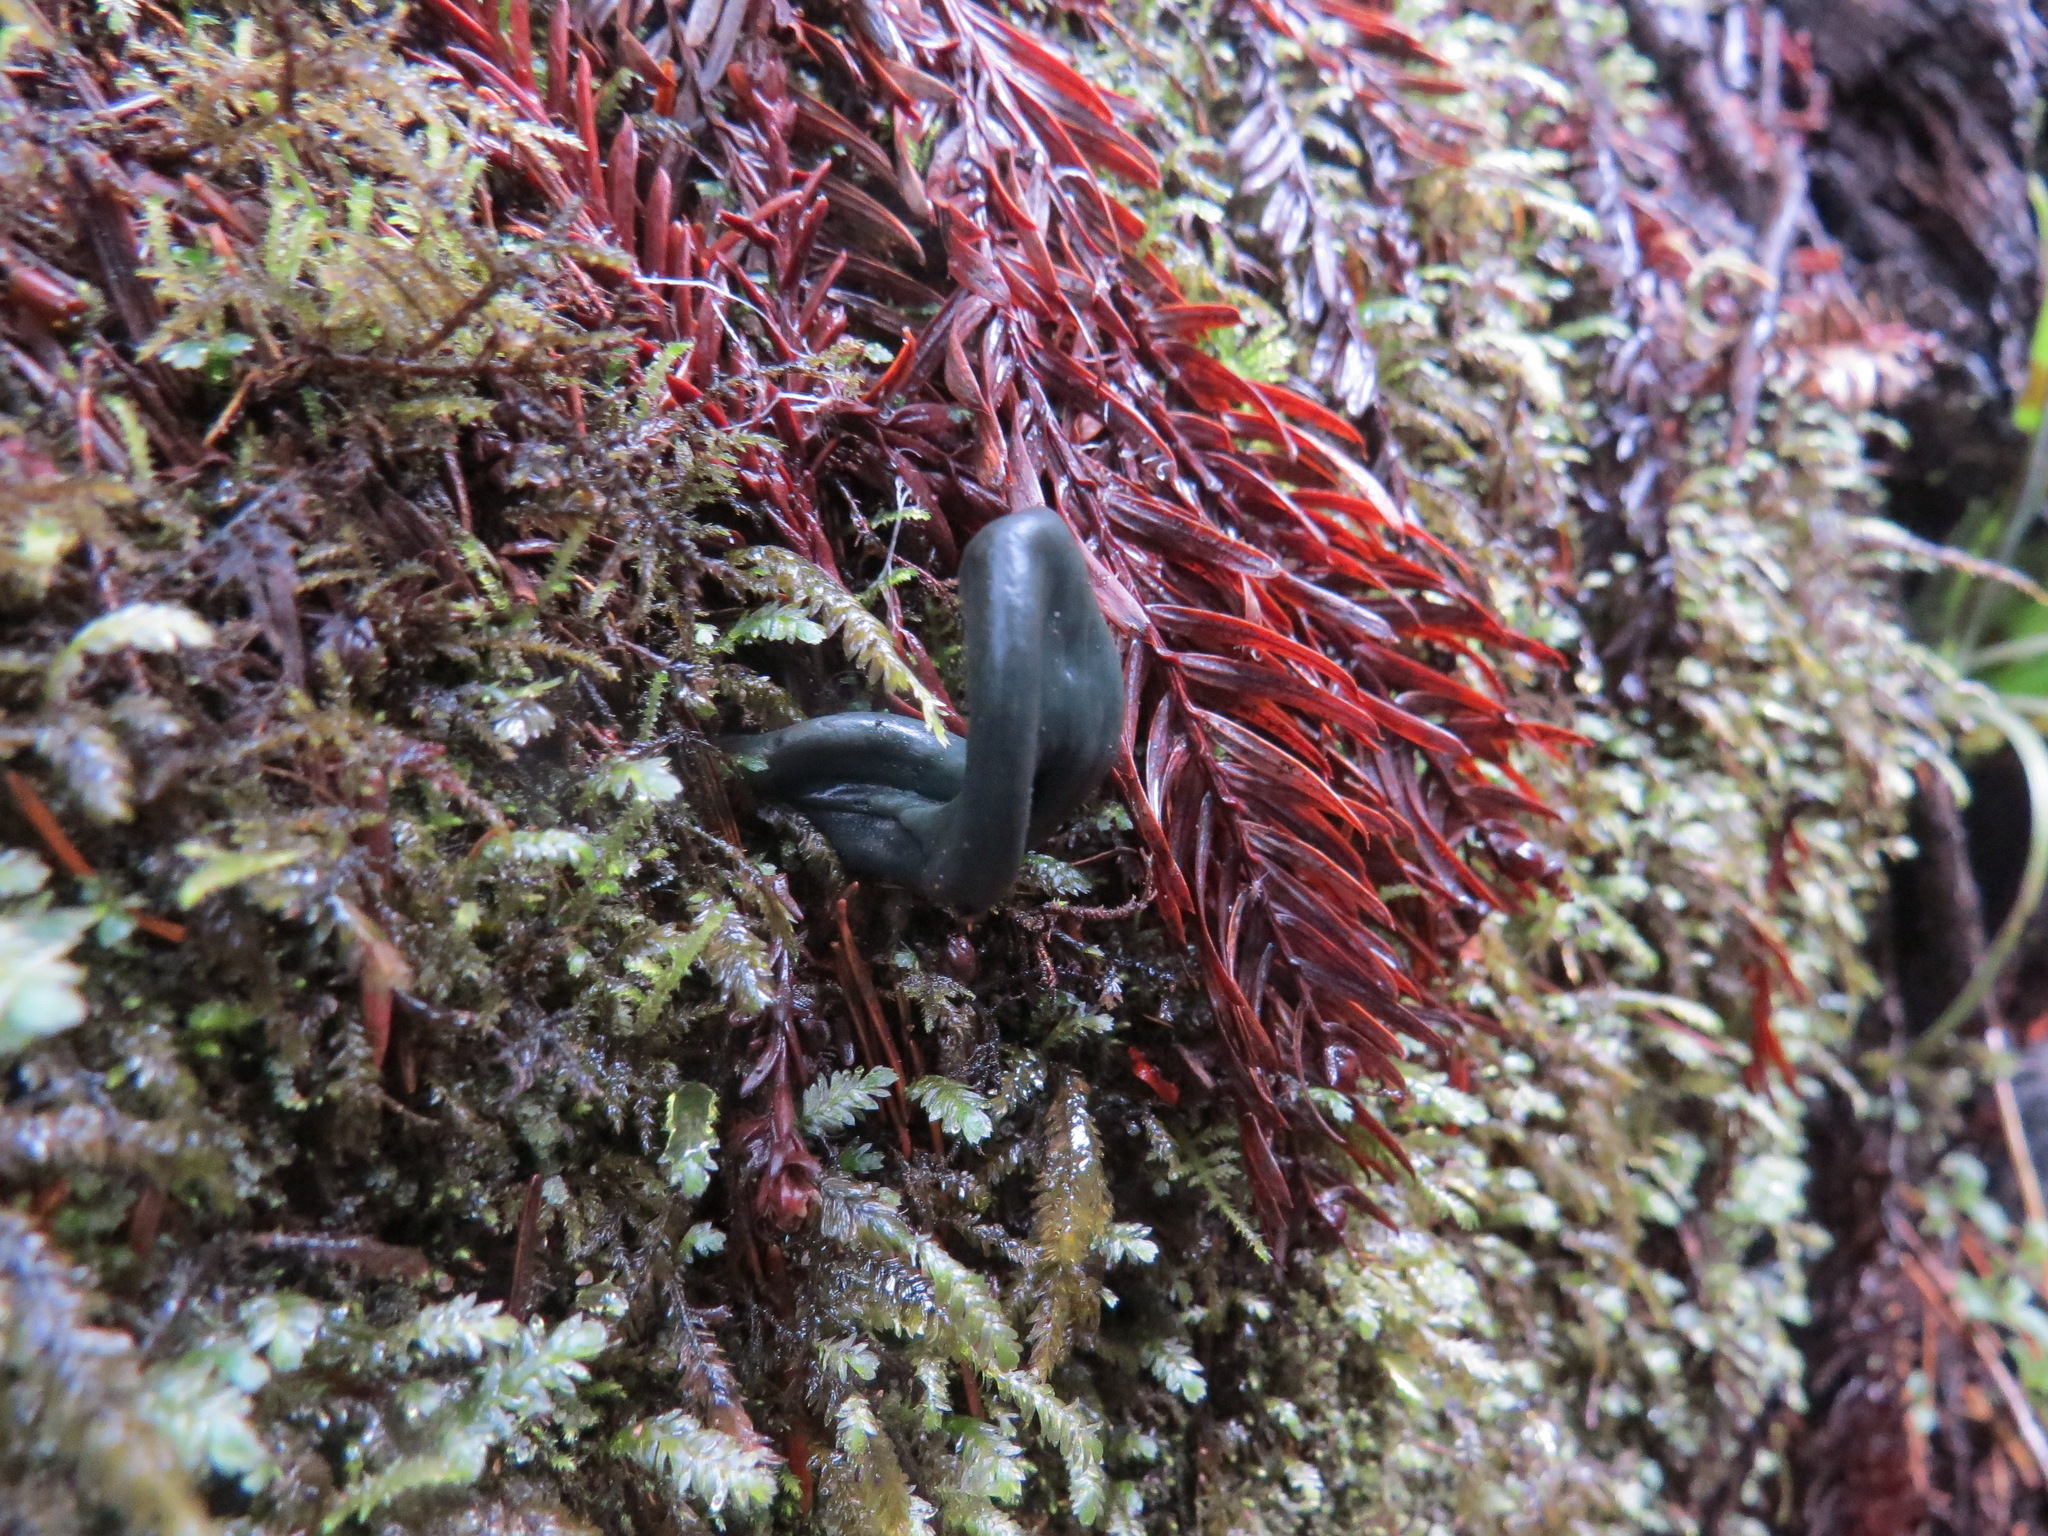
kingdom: Fungi
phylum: Ascomycota
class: Leotiomycetes
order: Leotiales
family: Leotiaceae
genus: Microglossum
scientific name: Microglossum viride
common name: Green earthtongue
